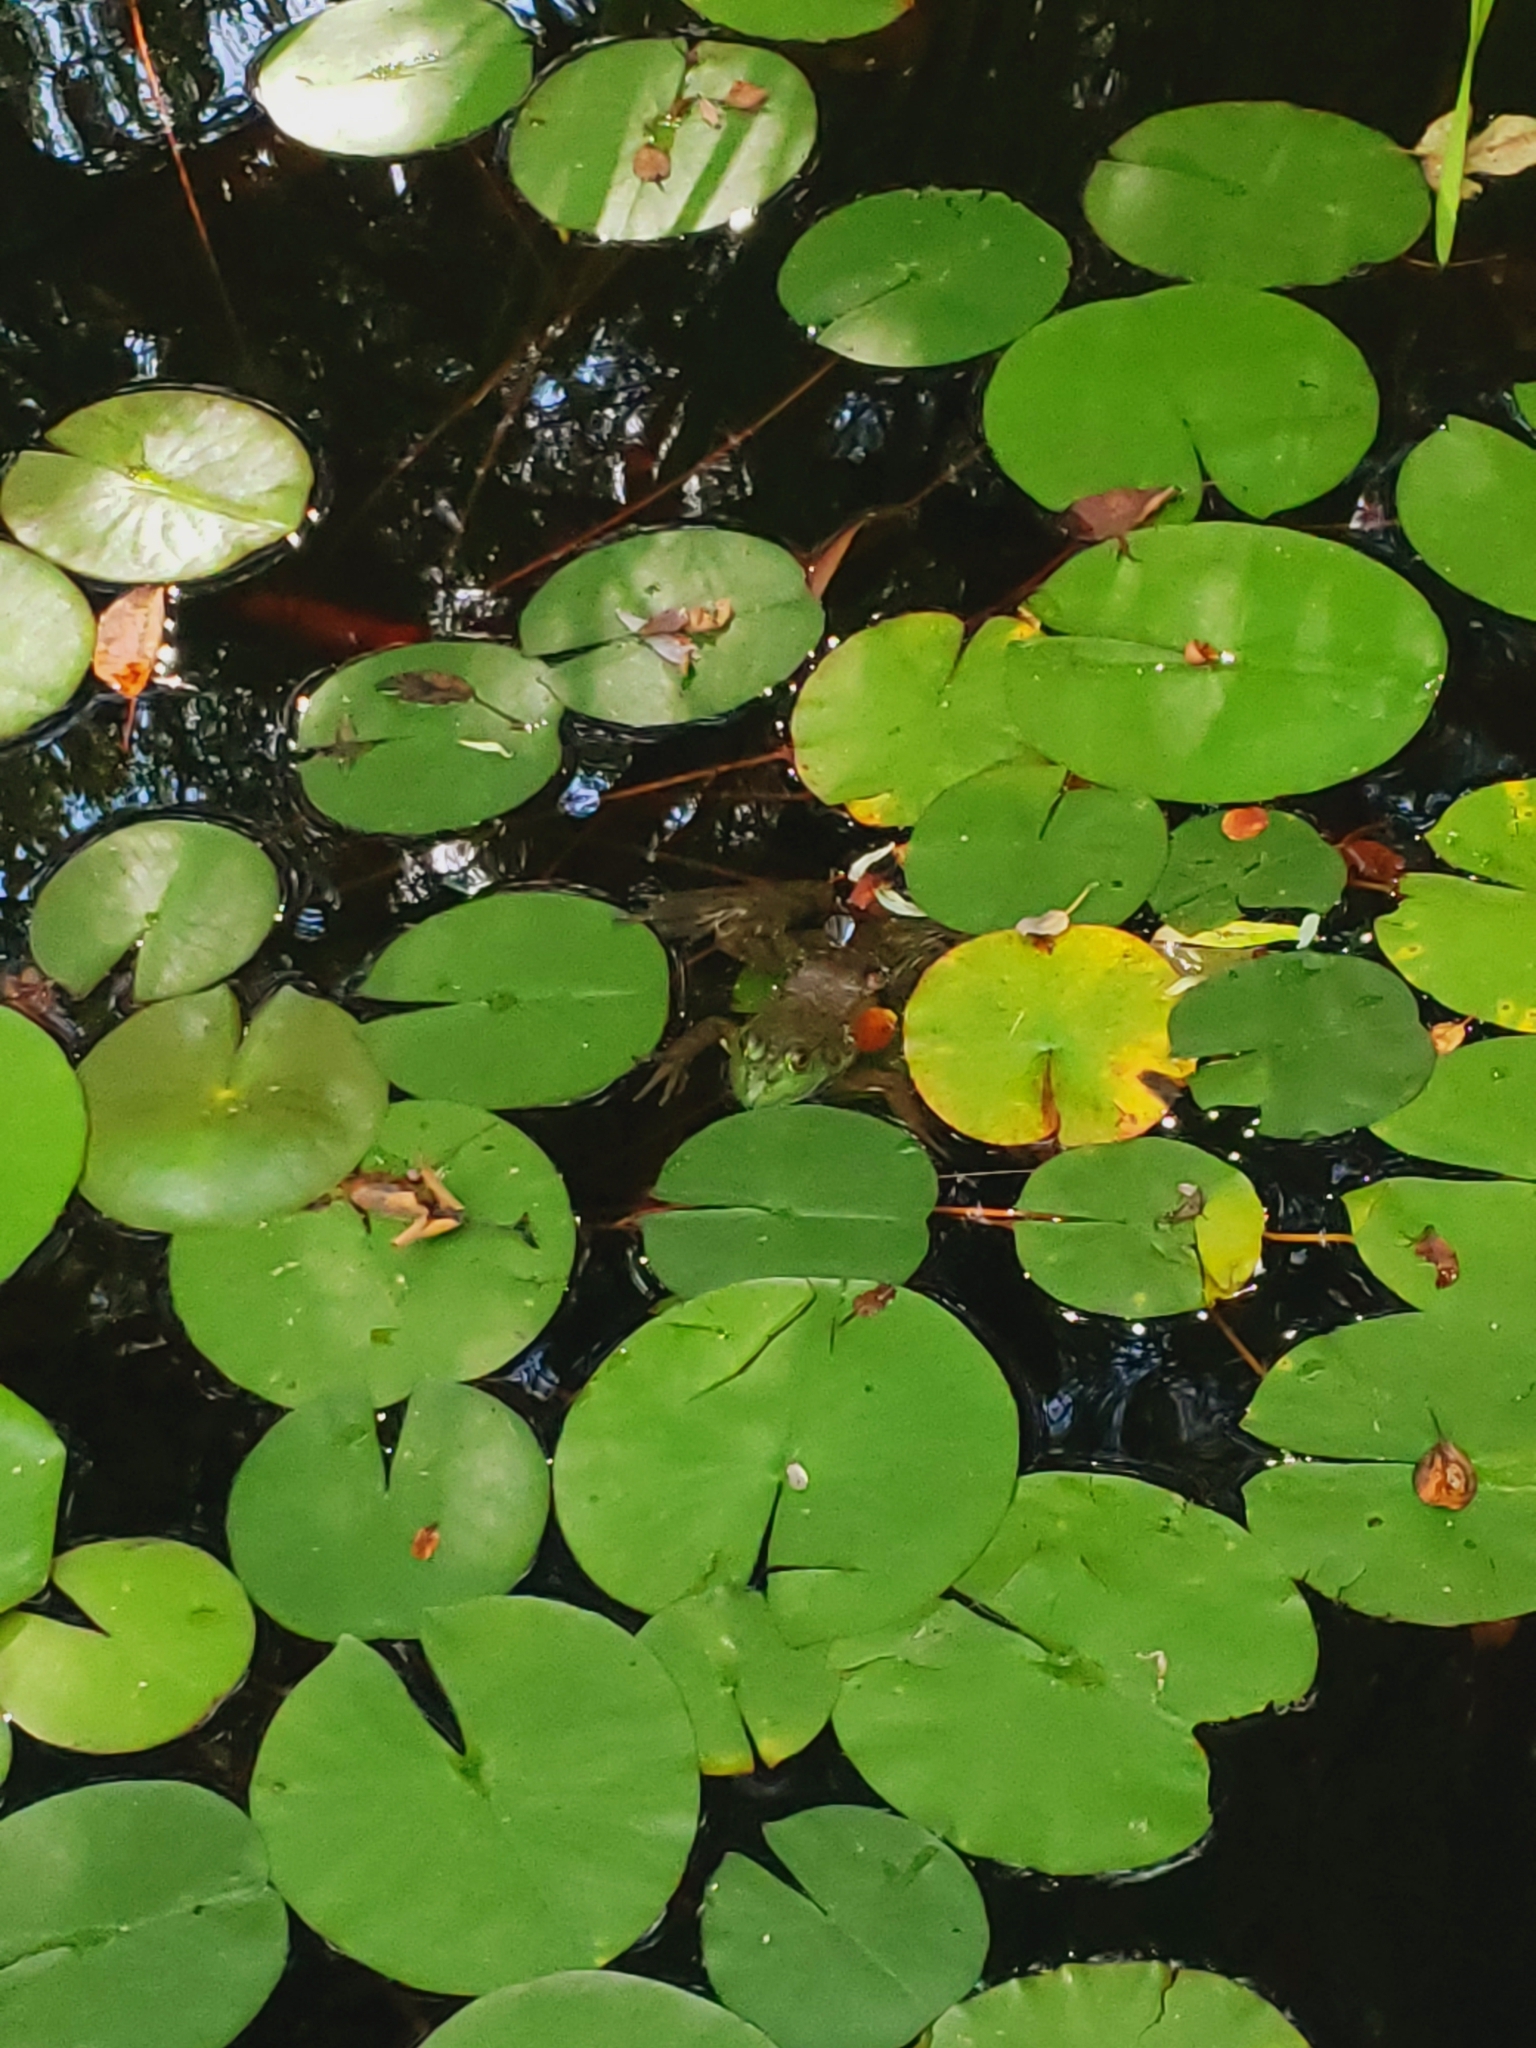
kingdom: Animalia
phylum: Chordata
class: Amphibia
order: Anura
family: Ranidae
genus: Lithobates
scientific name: Lithobates catesbeianus
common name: American bullfrog
